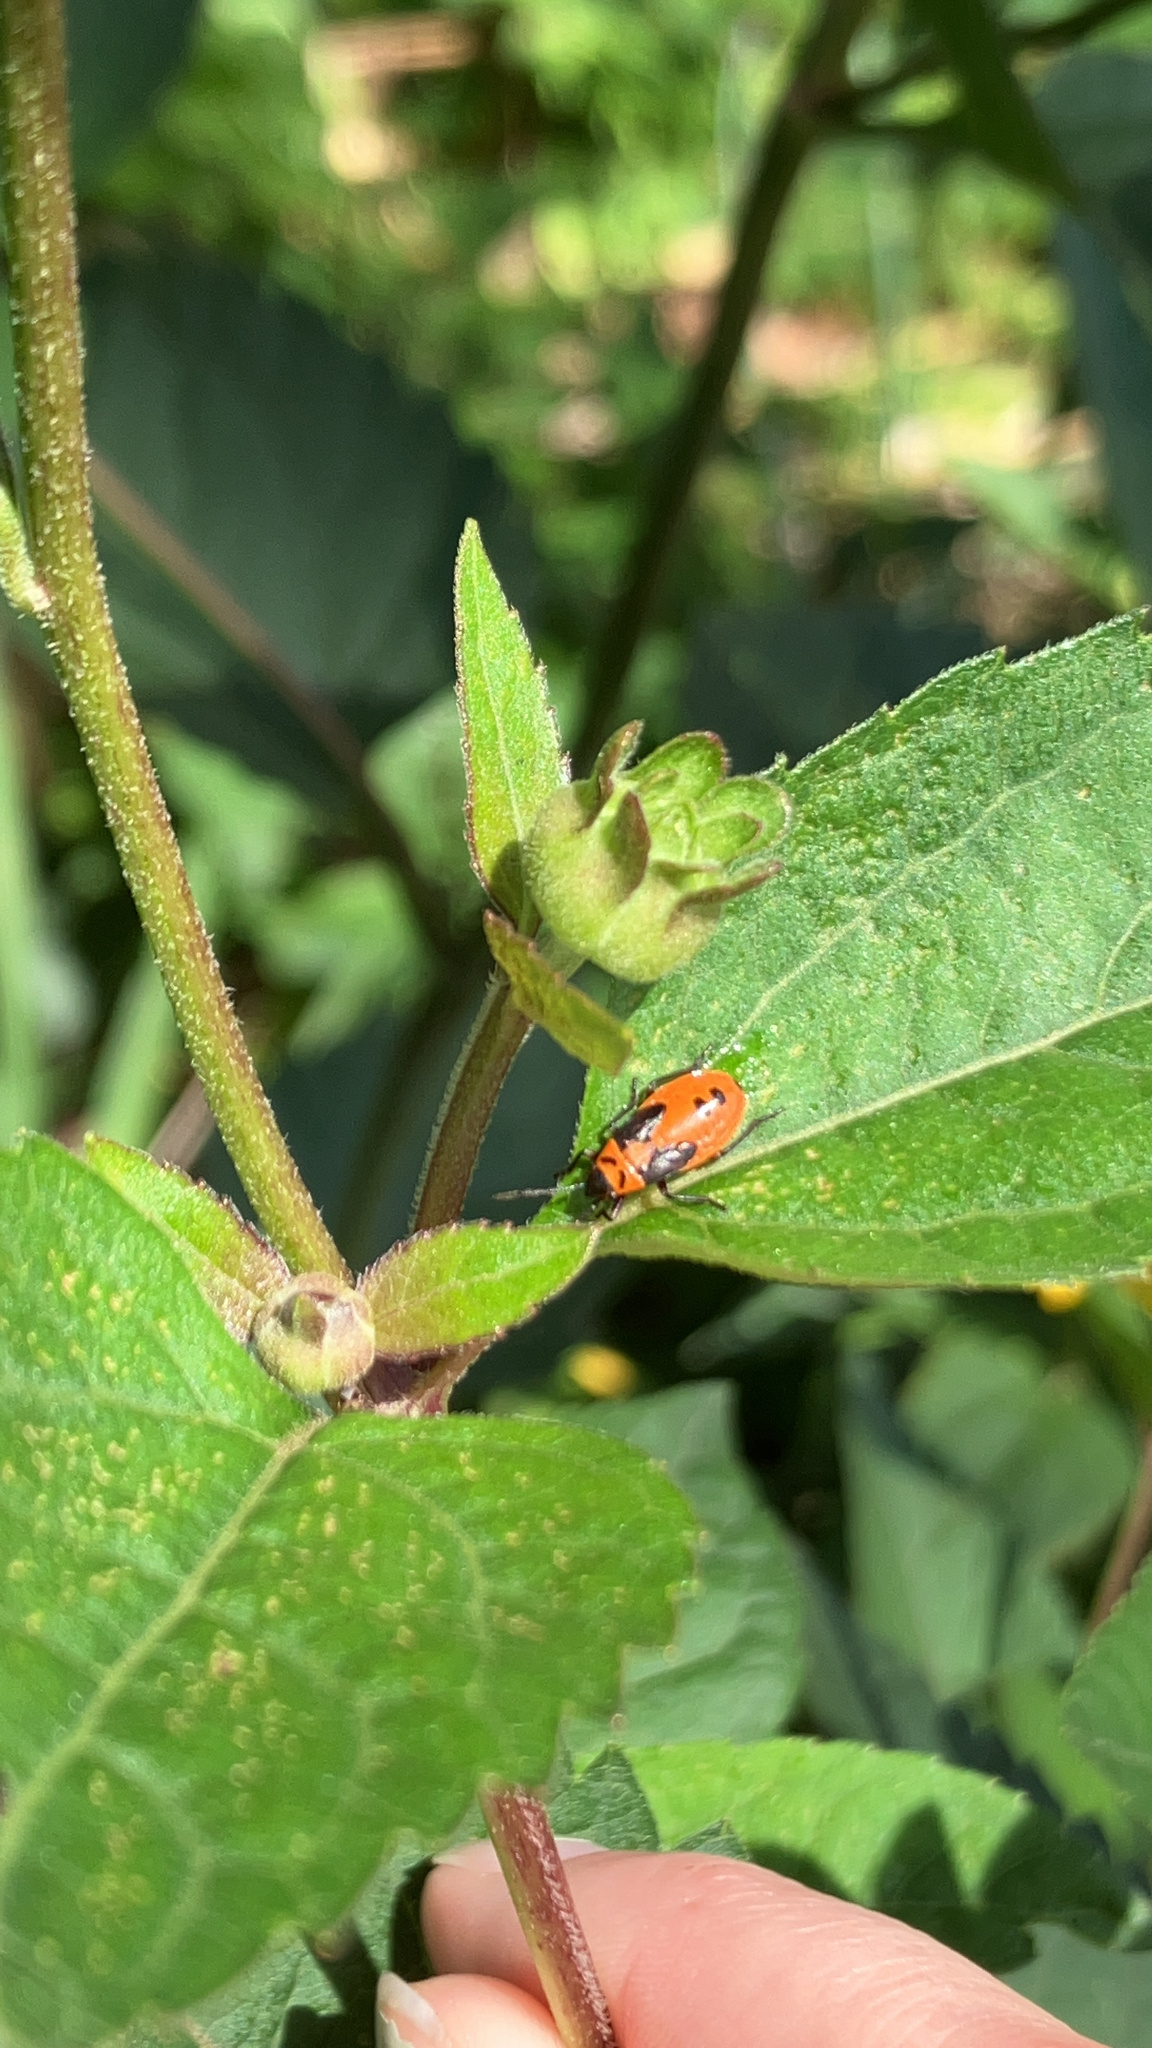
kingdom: Animalia
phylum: Arthropoda
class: Insecta
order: Hemiptera
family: Lygaeidae
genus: Lygaeus
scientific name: Lygaeus turcicus
